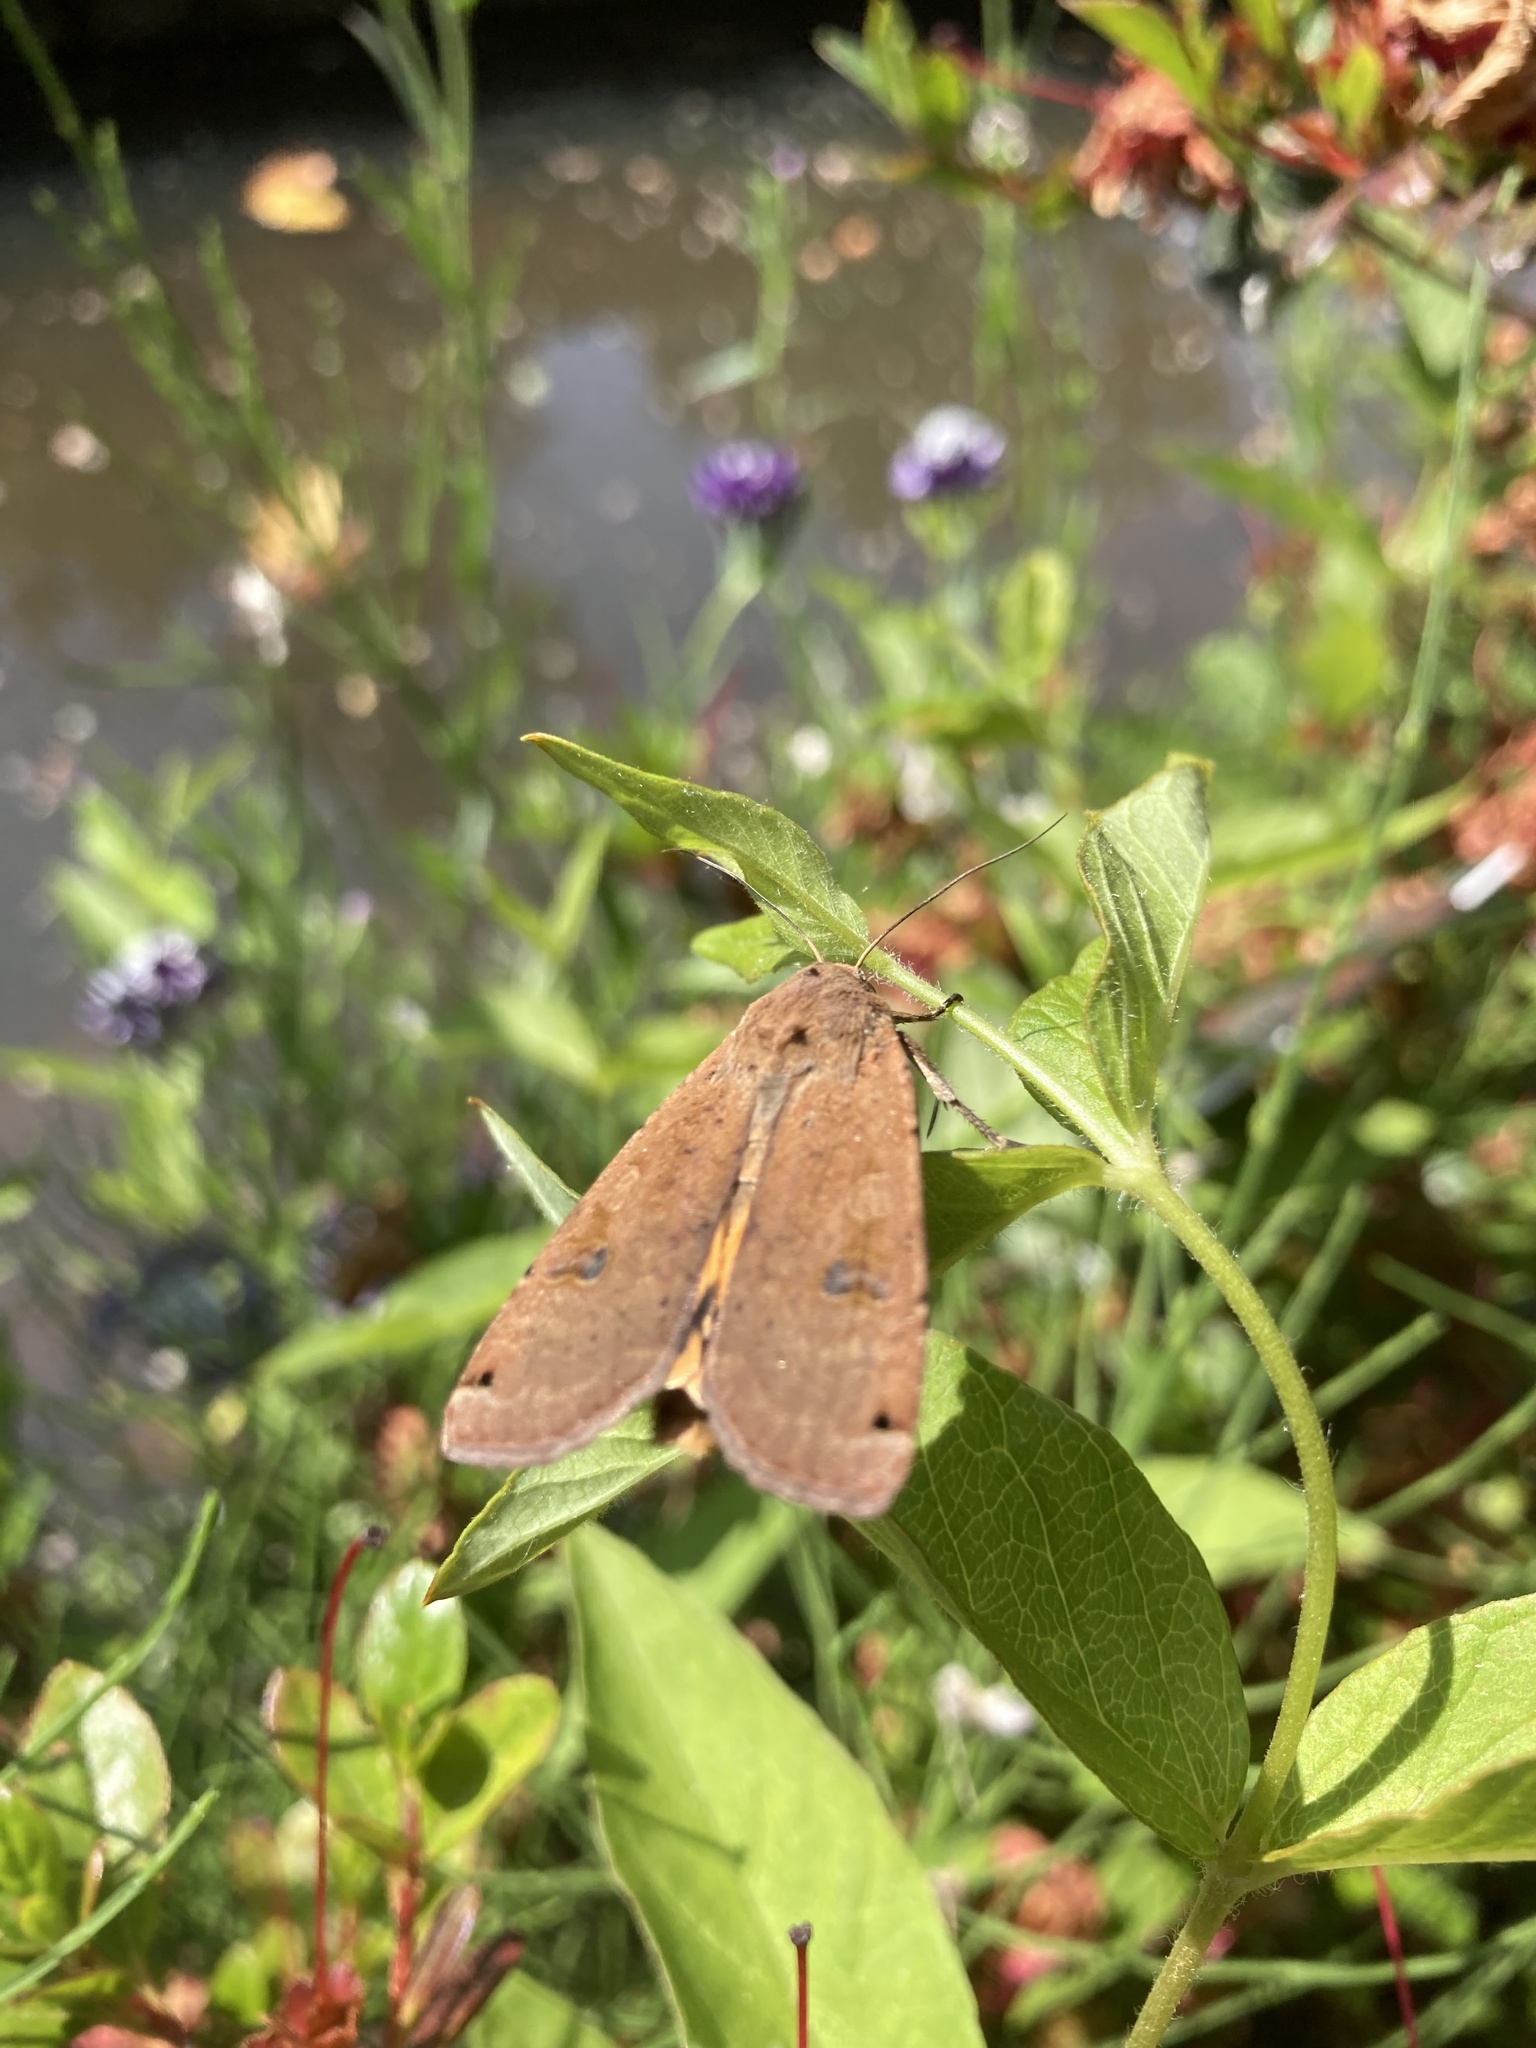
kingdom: Animalia
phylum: Arthropoda
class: Insecta
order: Lepidoptera
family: Noctuidae
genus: Noctua
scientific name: Noctua pronuba
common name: Large yellow underwing
